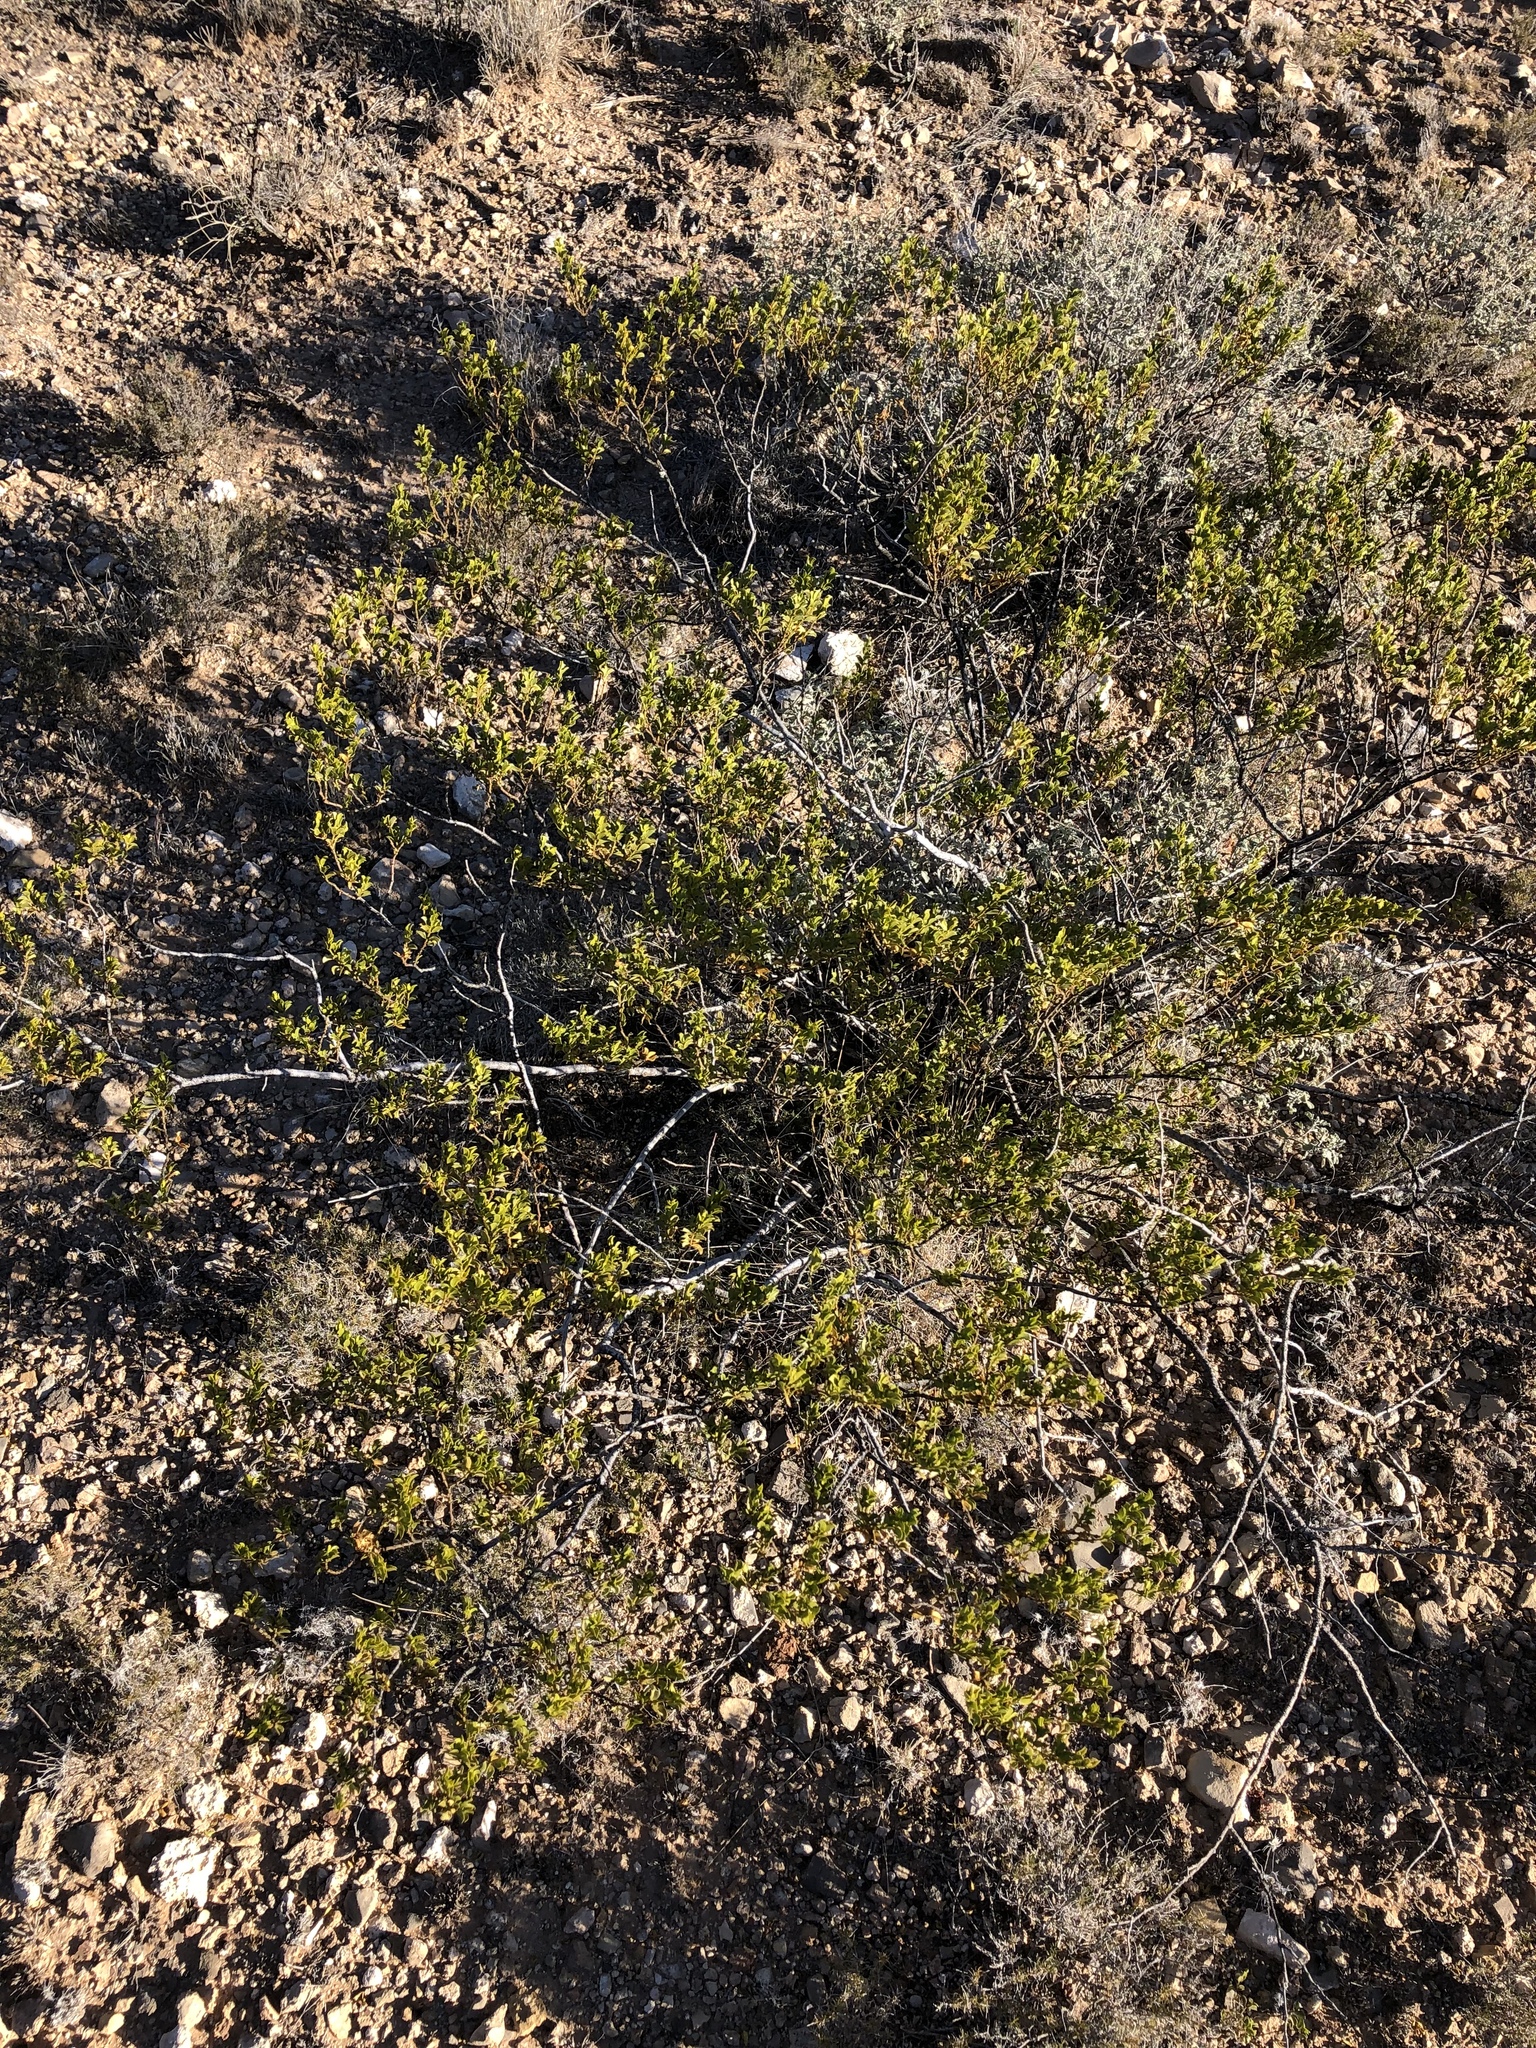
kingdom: Plantae
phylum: Tracheophyta
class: Magnoliopsida
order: Zygophyllales
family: Zygophyllaceae
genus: Larrea
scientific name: Larrea tridentata
